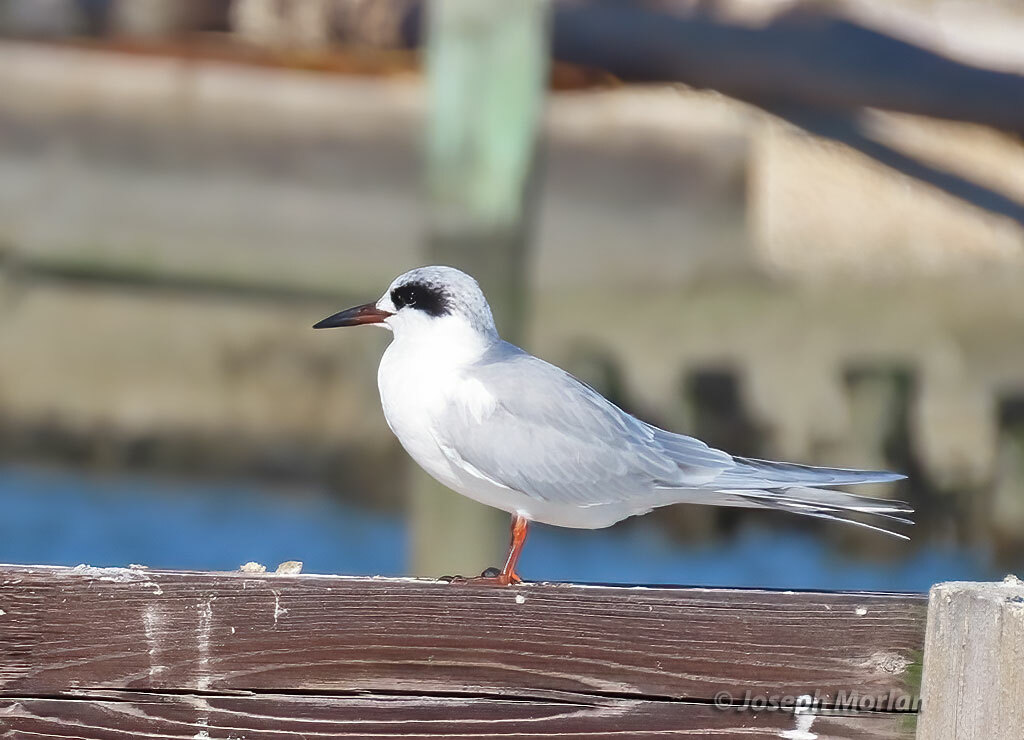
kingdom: Animalia
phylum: Chordata
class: Aves
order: Charadriiformes
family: Laridae
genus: Sterna
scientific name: Sterna forsteri
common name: Forster's tern
